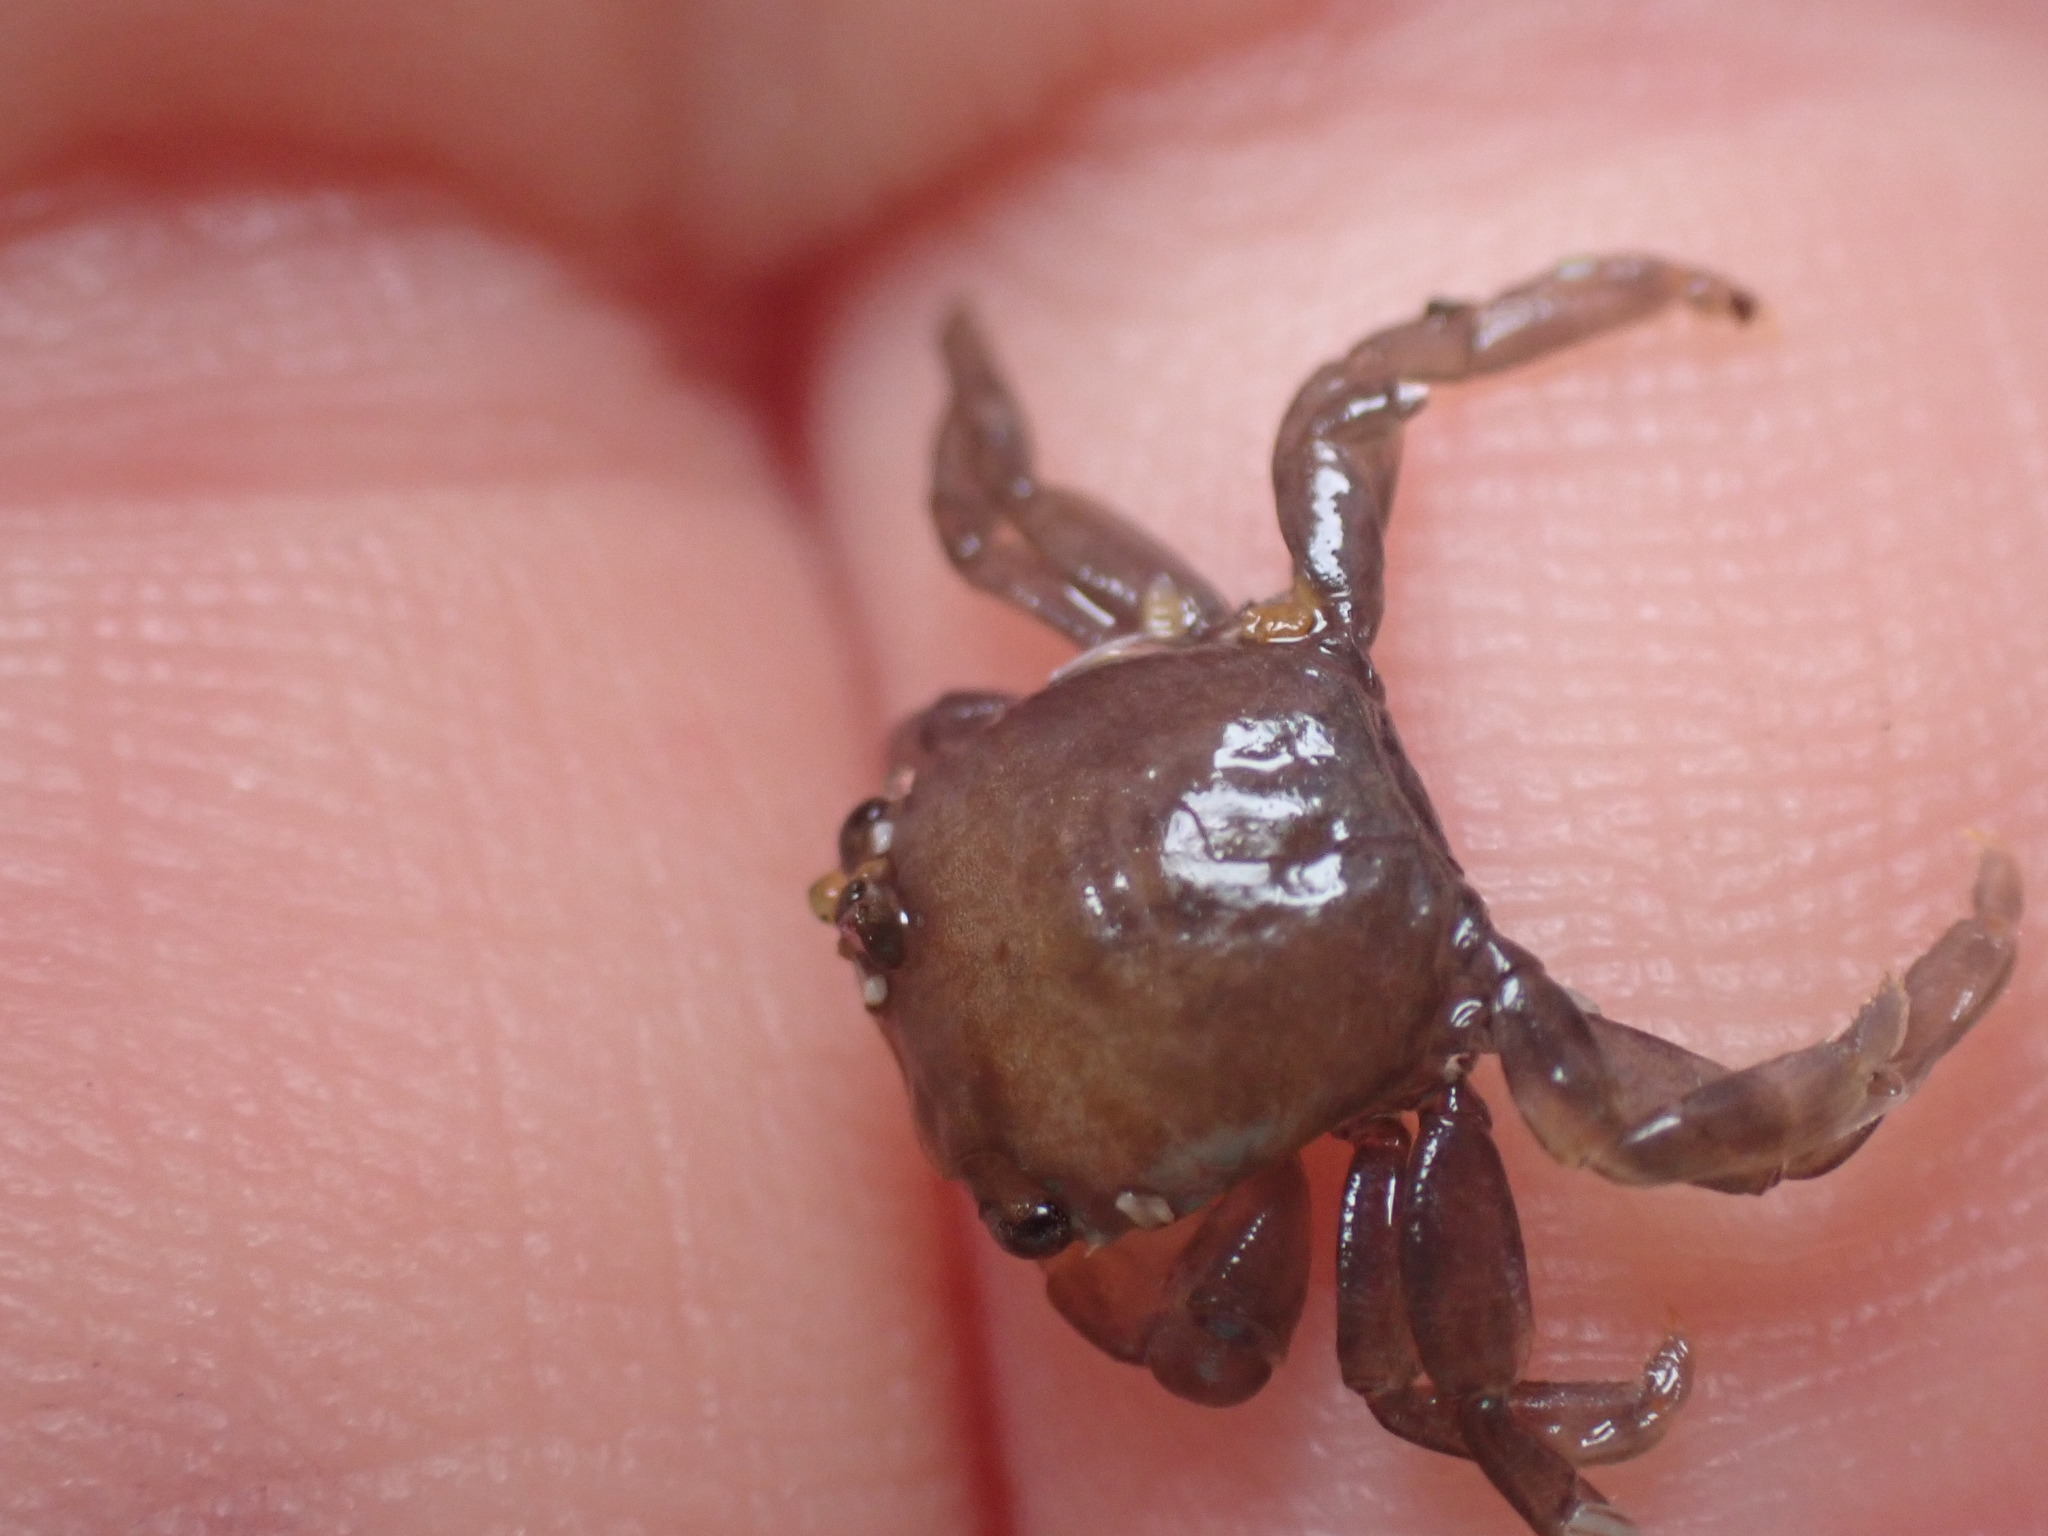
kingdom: Animalia
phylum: Arthropoda
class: Malacostraca
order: Decapoda
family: Grapsidae
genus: Planes
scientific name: Planes minutus
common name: Gulf weed crab
